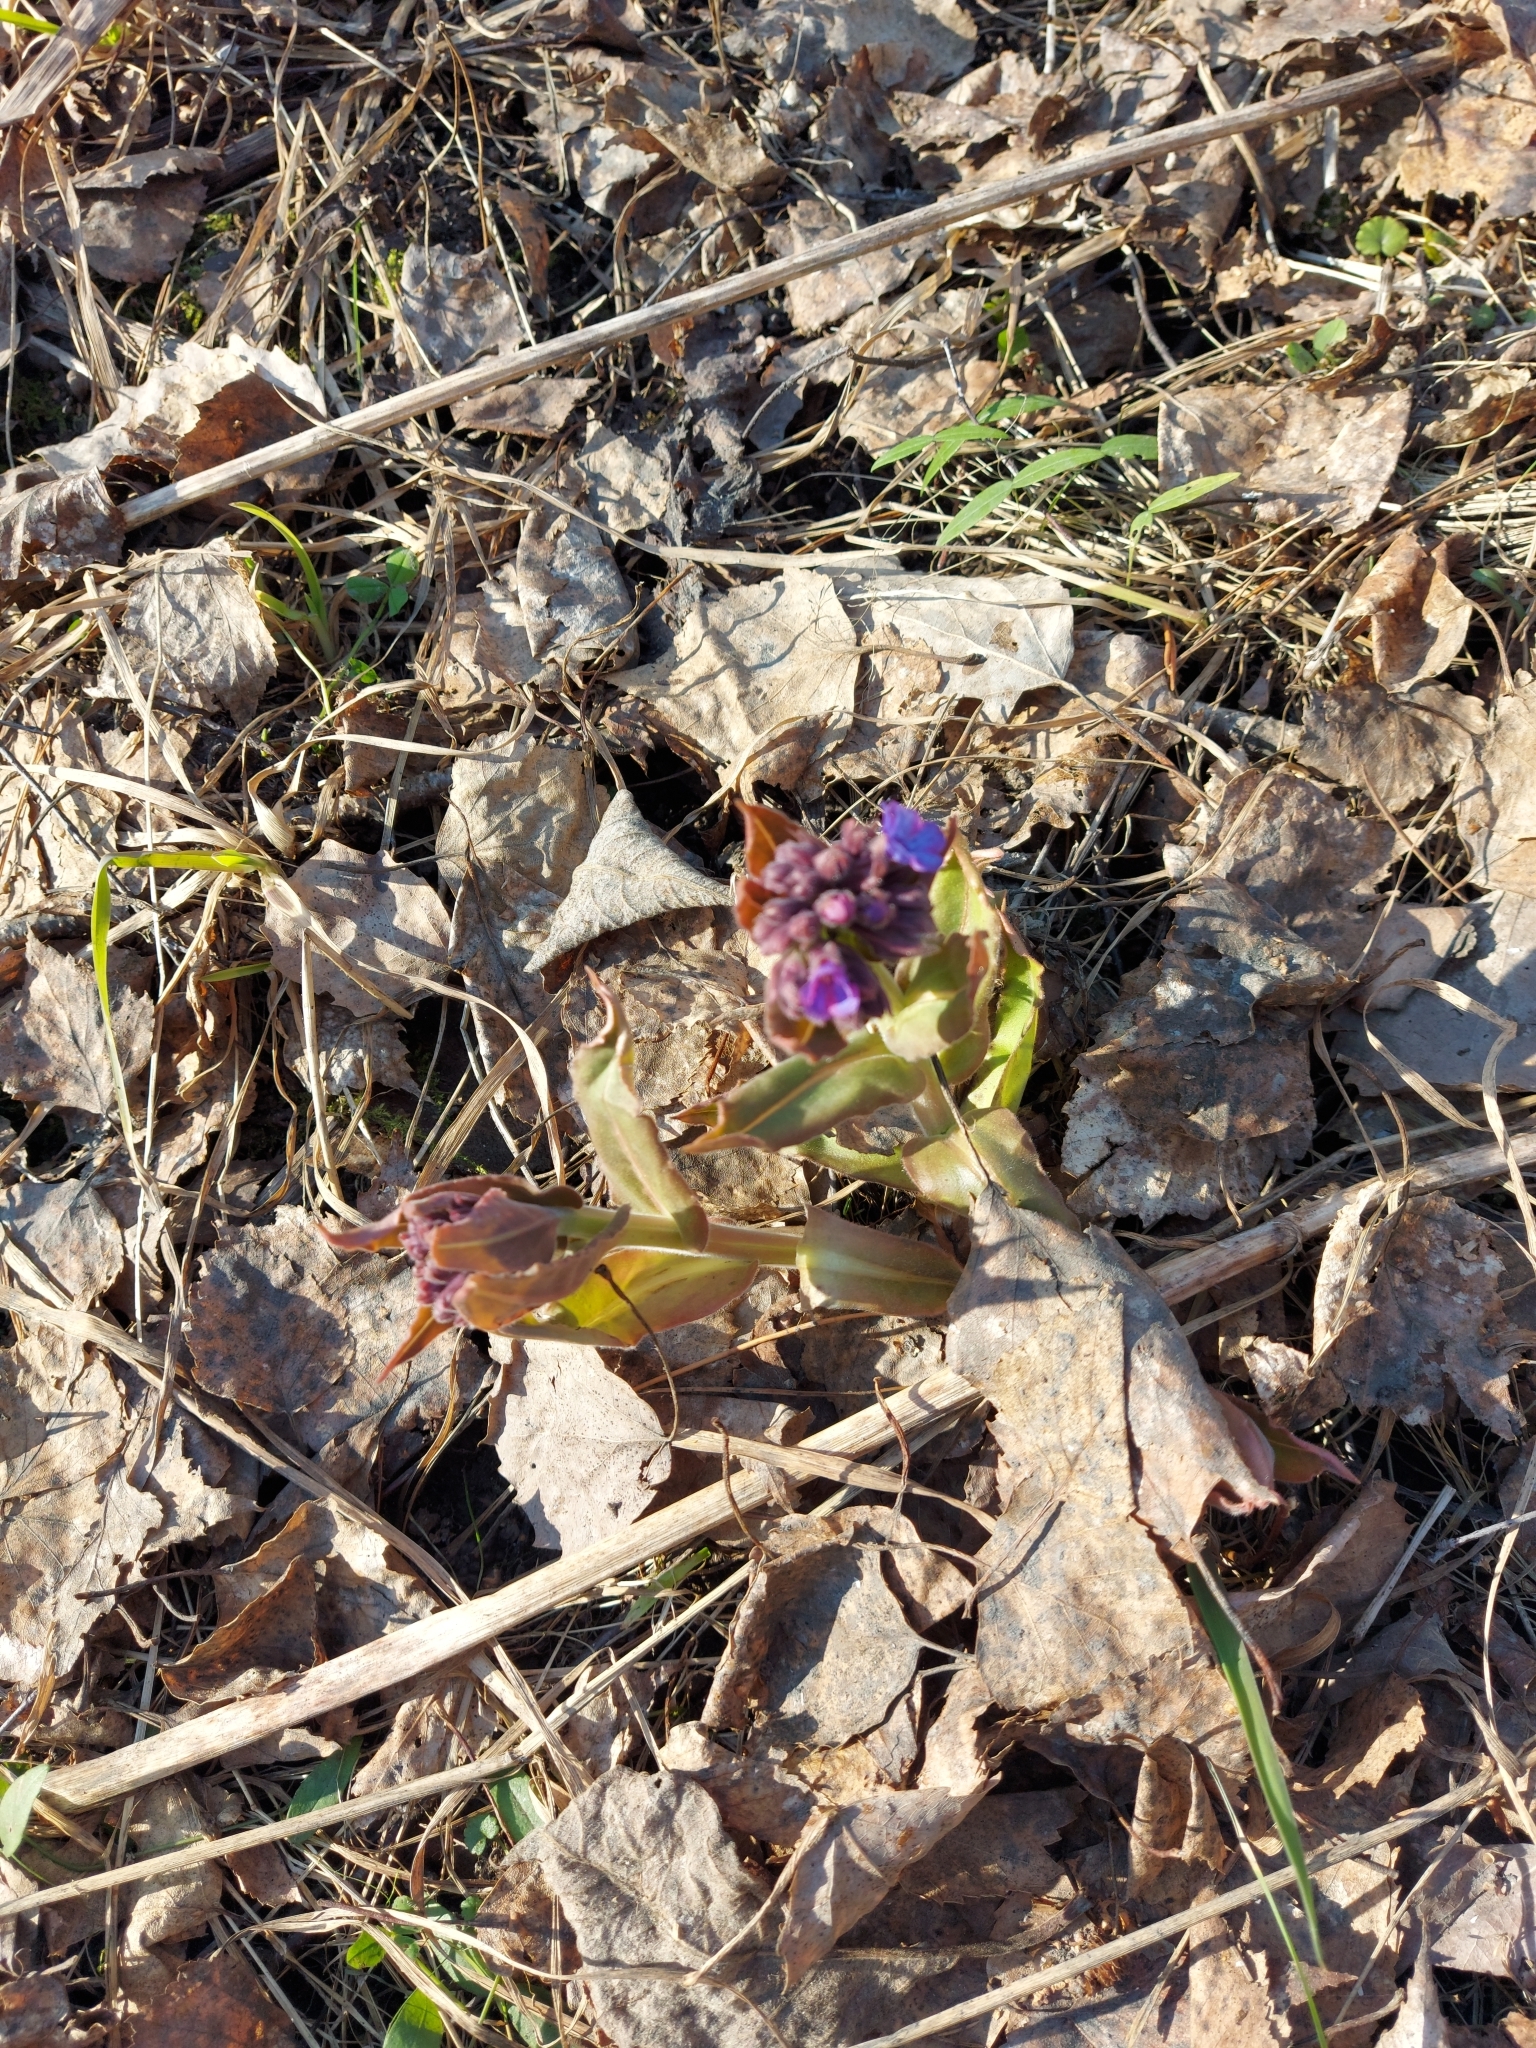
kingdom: Plantae
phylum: Tracheophyta
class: Magnoliopsida
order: Boraginales
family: Boraginaceae
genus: Pulmonaria
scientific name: Pulmonaria mollis
